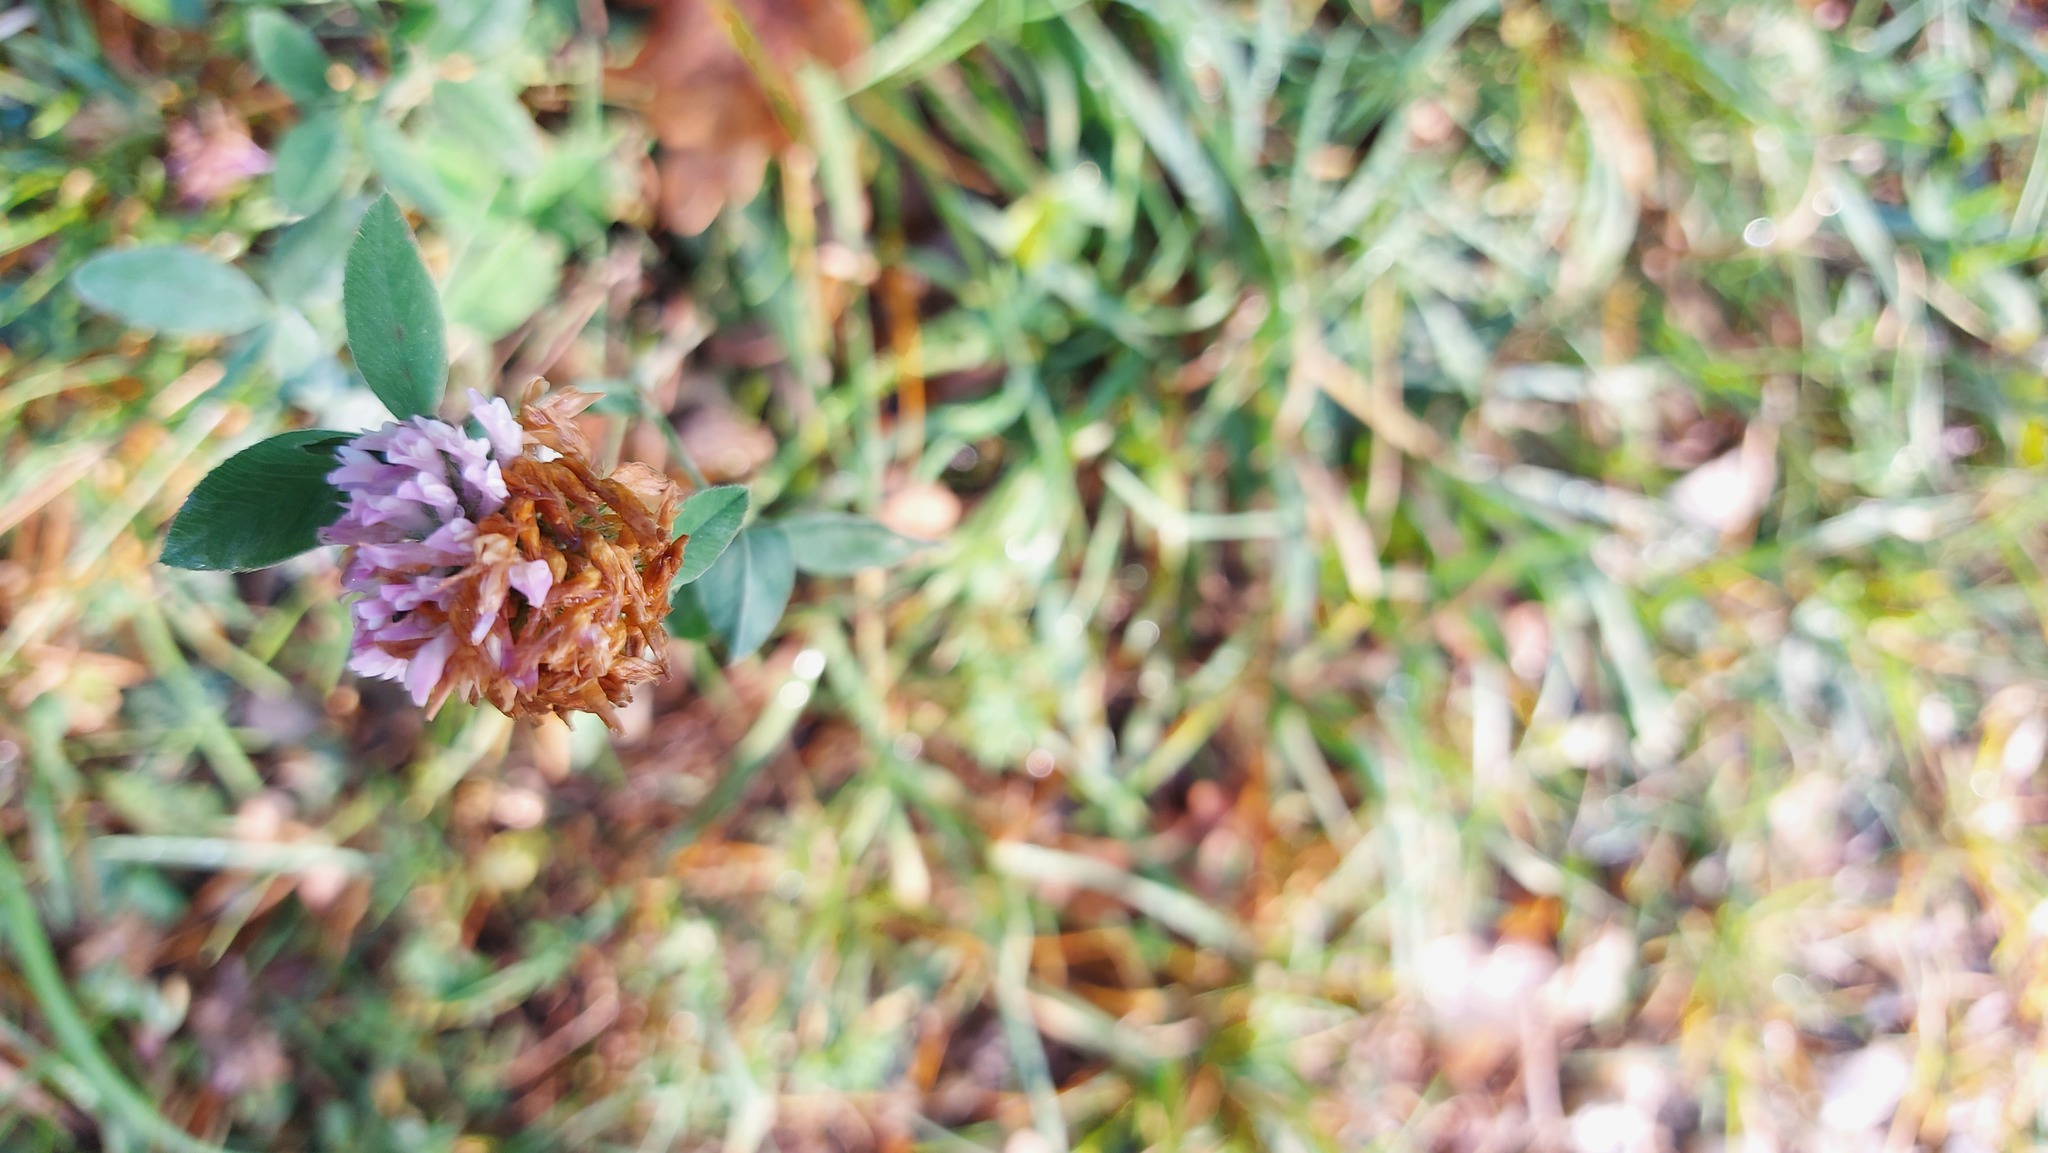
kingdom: Plantae
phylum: Tracheophyta
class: Magnoliopsida
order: Fabales
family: Fabaceae
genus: Trifolium
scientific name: Trifolium pratense
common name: Red clover
